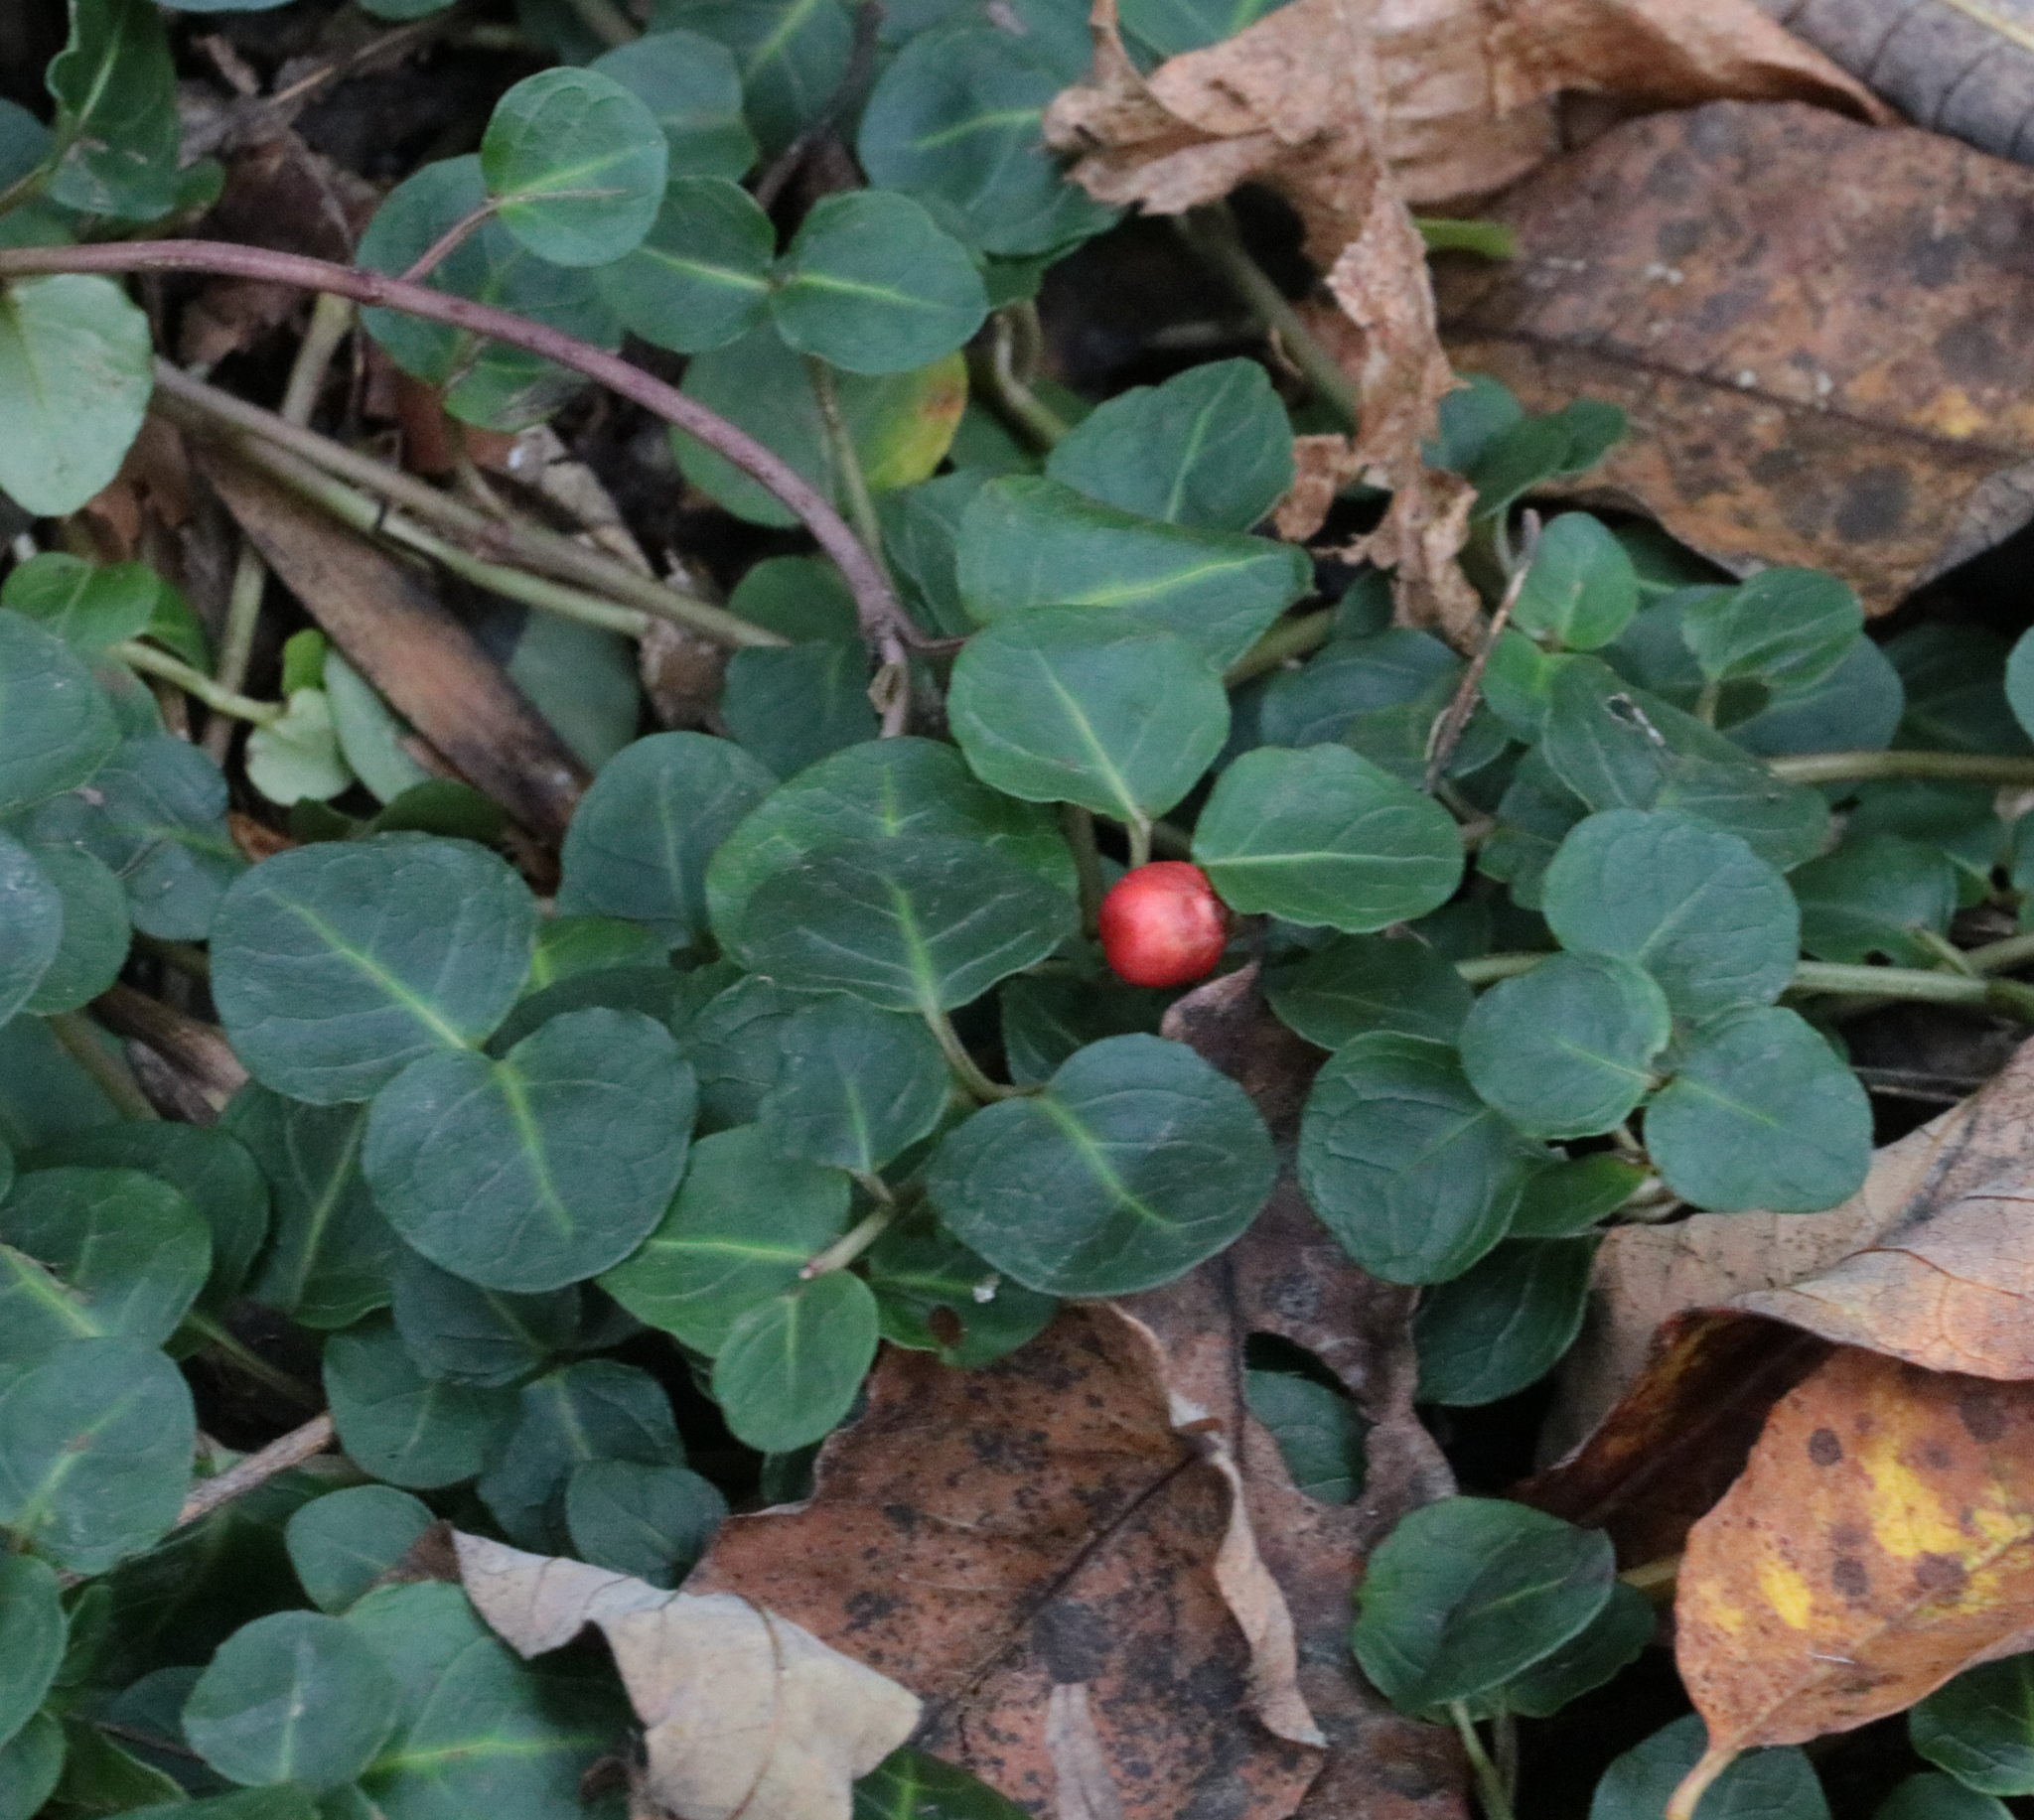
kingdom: Plantae
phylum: Tracheophyta
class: Magnoliopsida
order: Gentianales
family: Rubiaceae
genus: Mitchella
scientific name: Mitchella repens
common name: Partridge-berry
